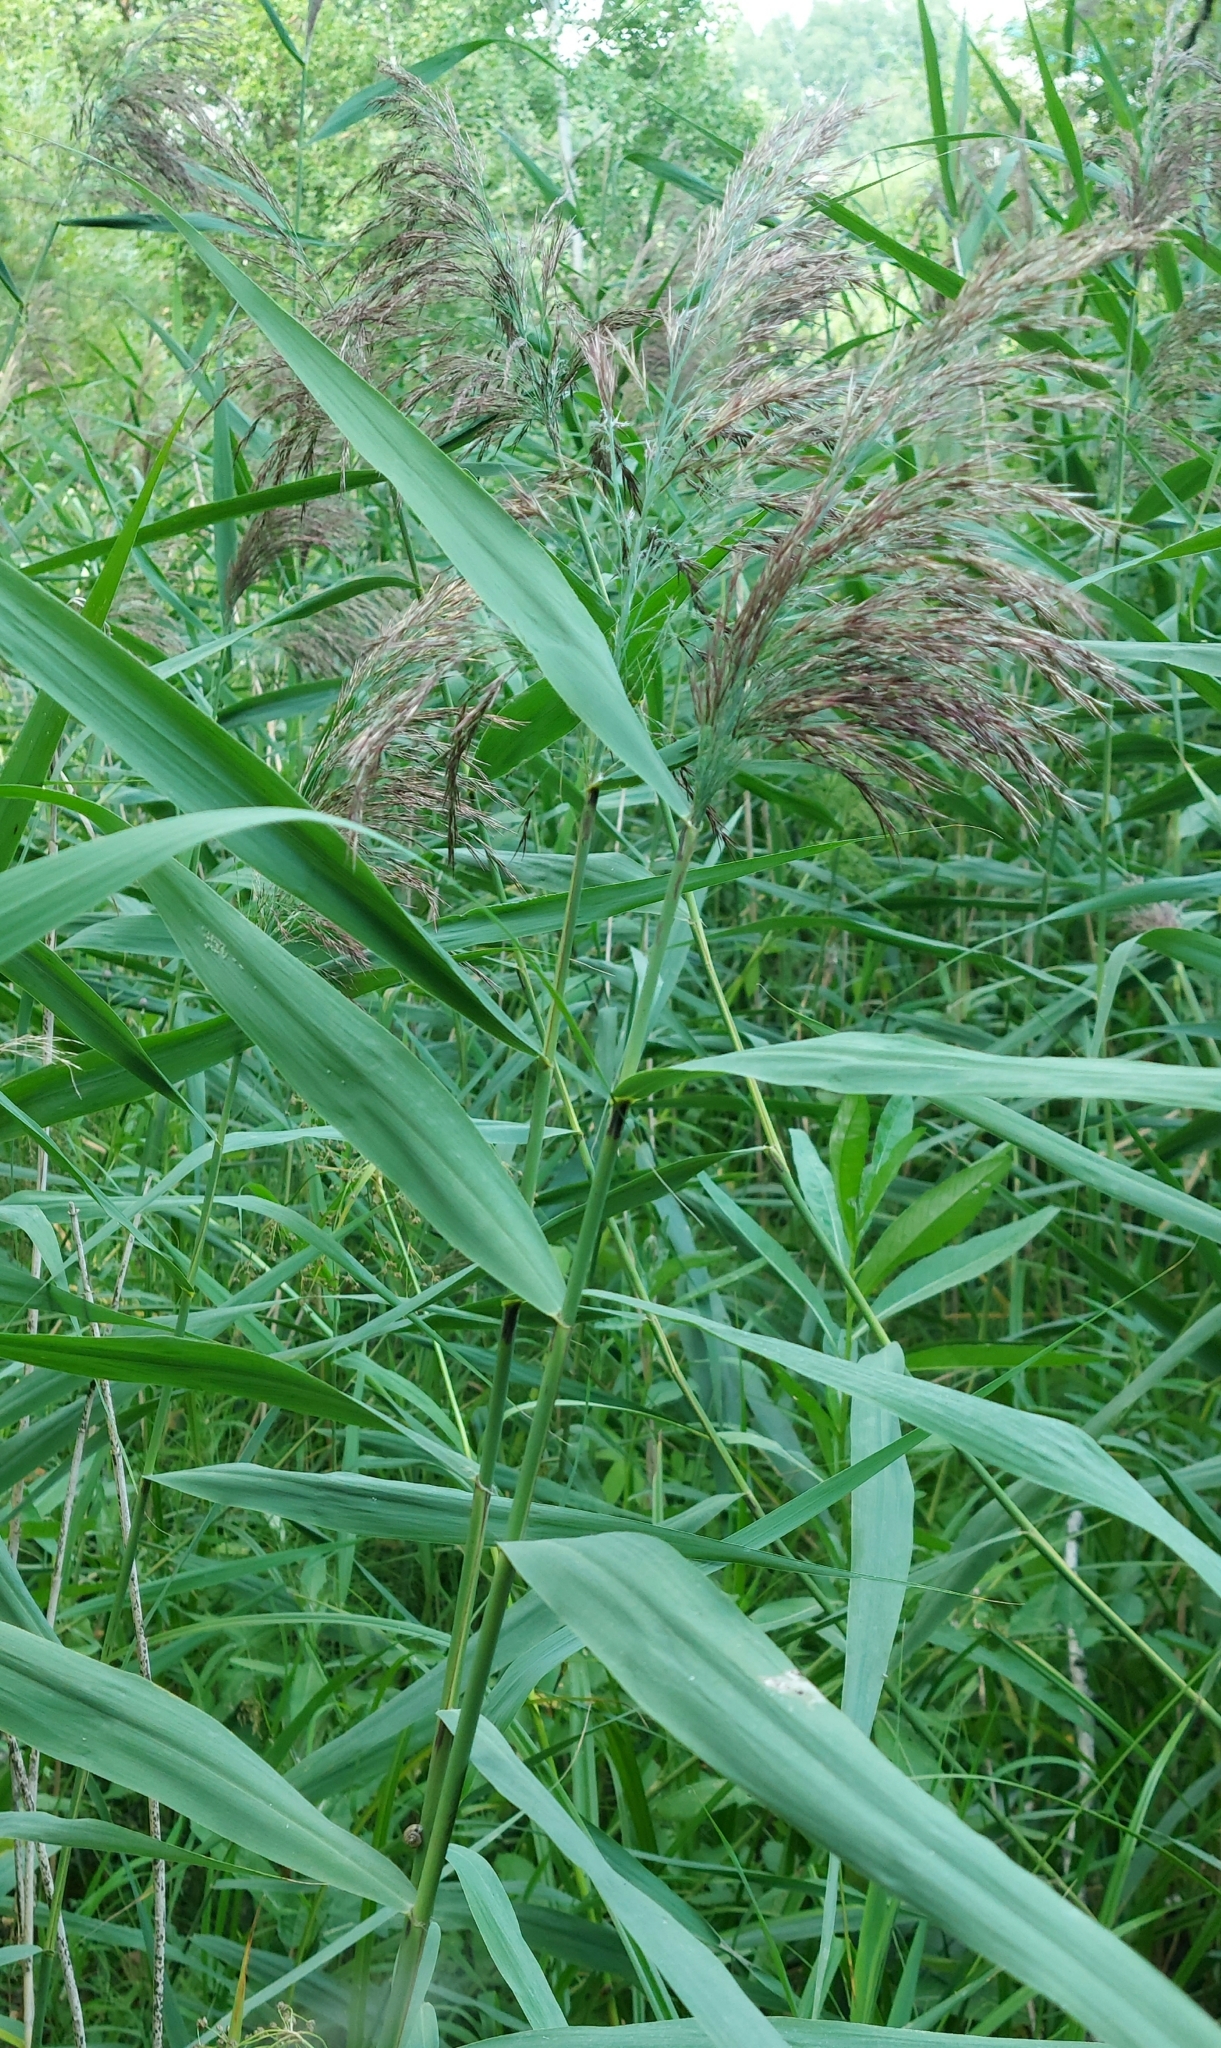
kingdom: Plantae
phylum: Tracheophyta
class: Liliopsida
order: Poales
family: Poaceae
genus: Phragmites
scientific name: Phragmites australis
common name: Common reed
